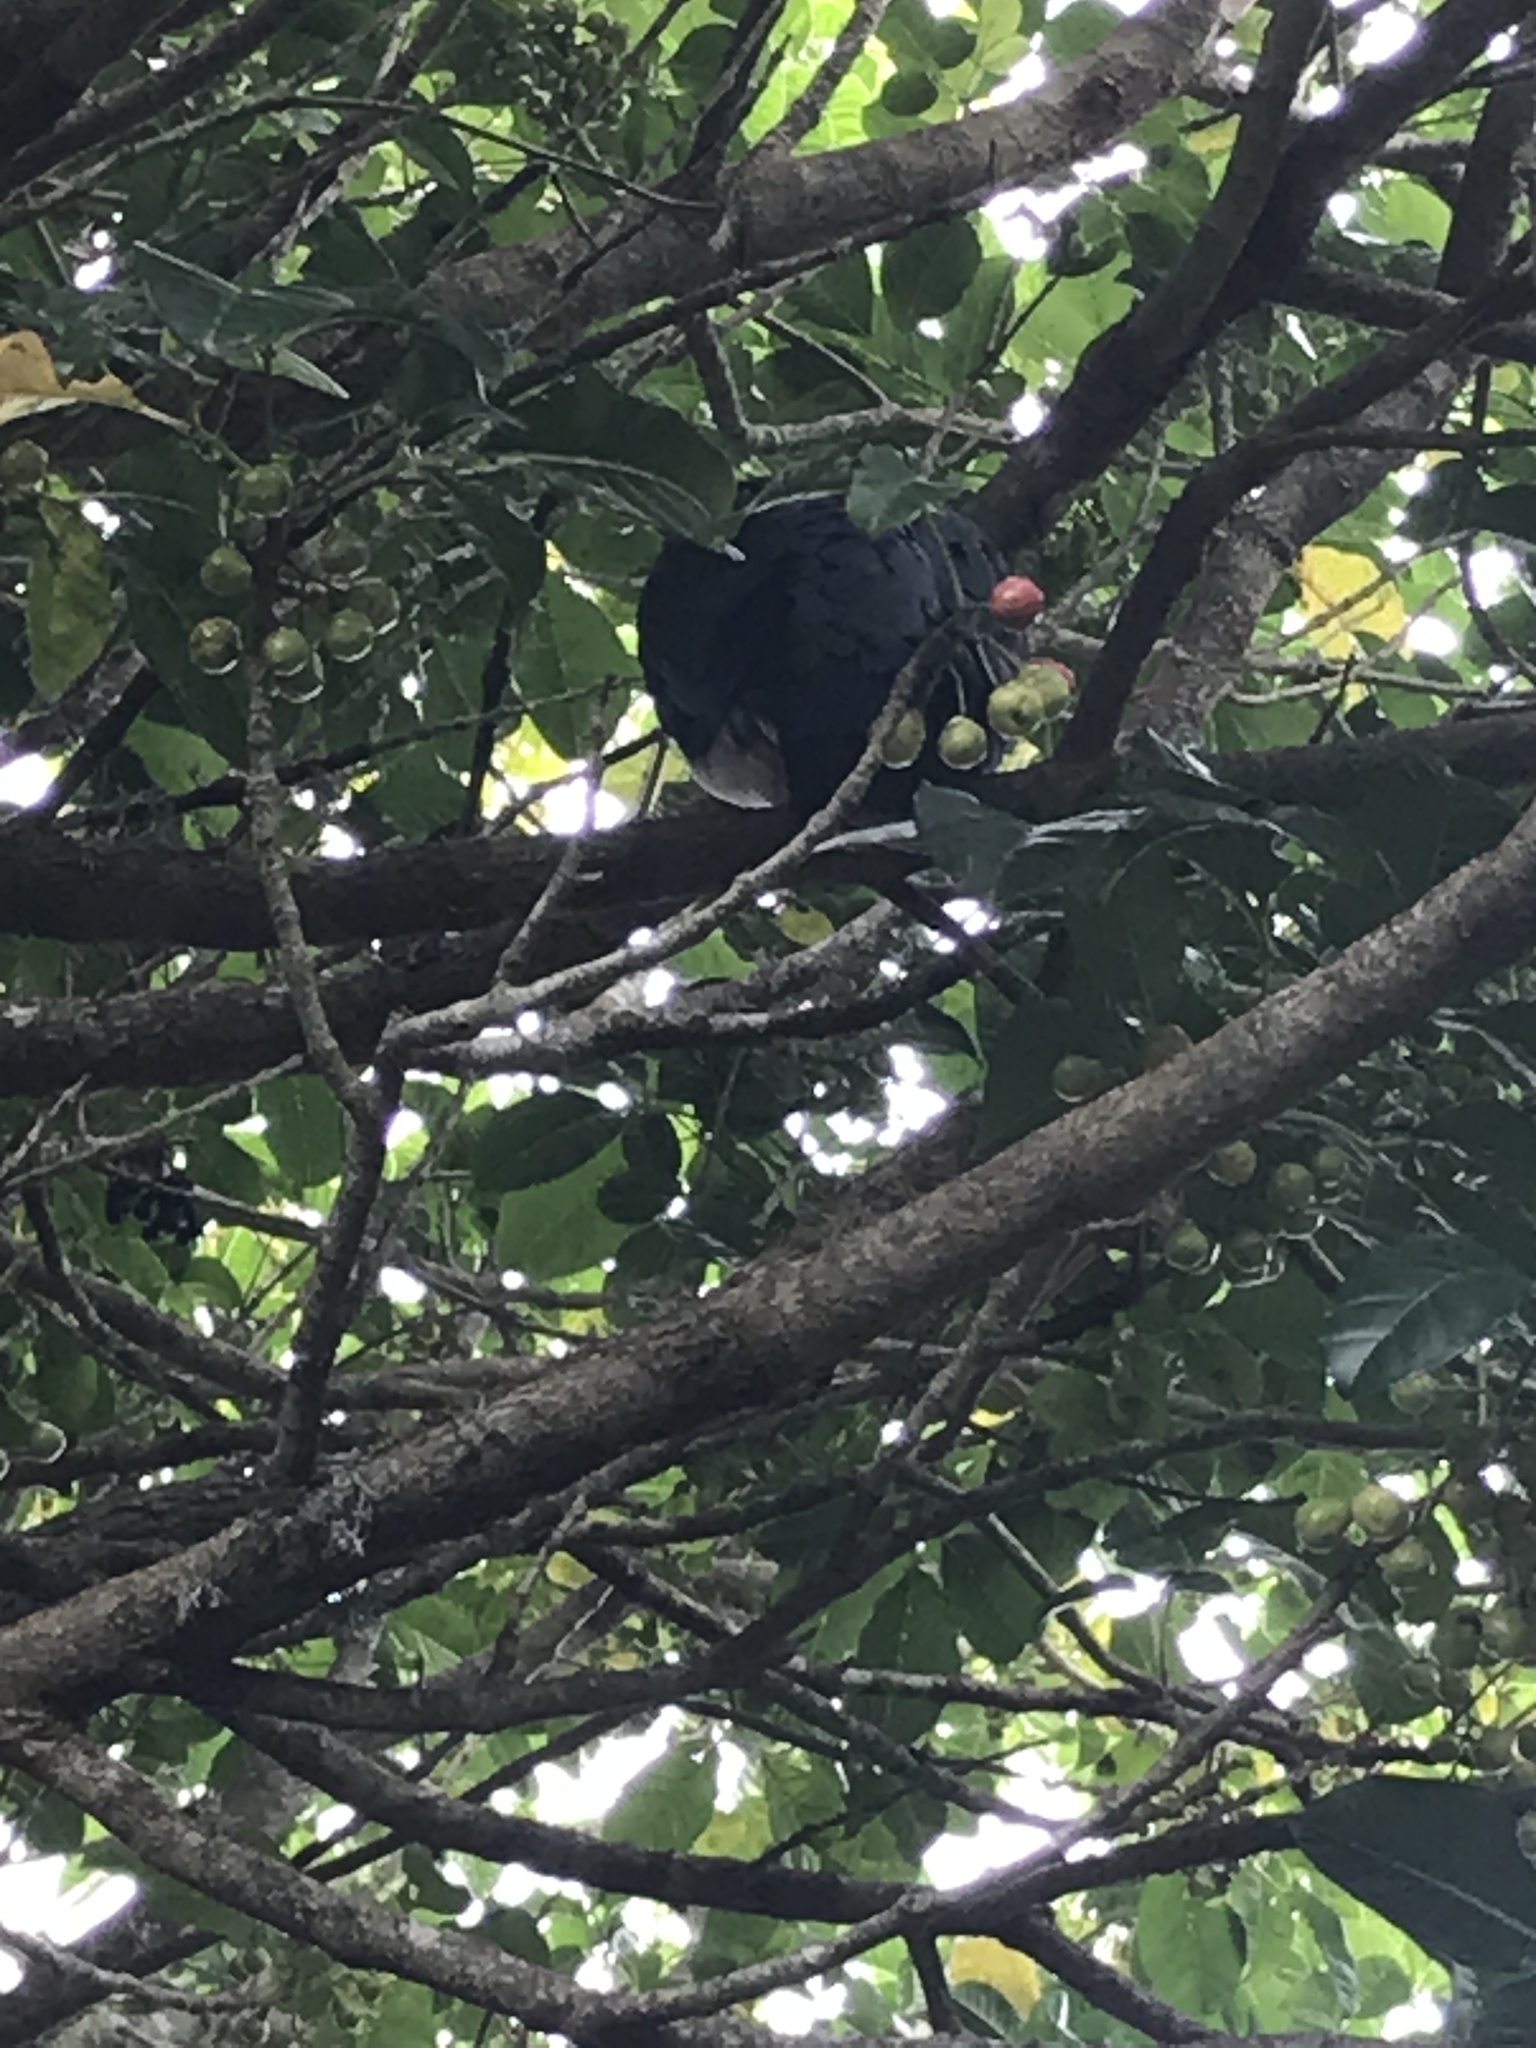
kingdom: Animalia
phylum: Chordata
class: Aves
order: Columbiformes
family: Columbidae
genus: Hemiphaga
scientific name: Hemiphaga novaeseelandiae
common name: New zealand pigeon
